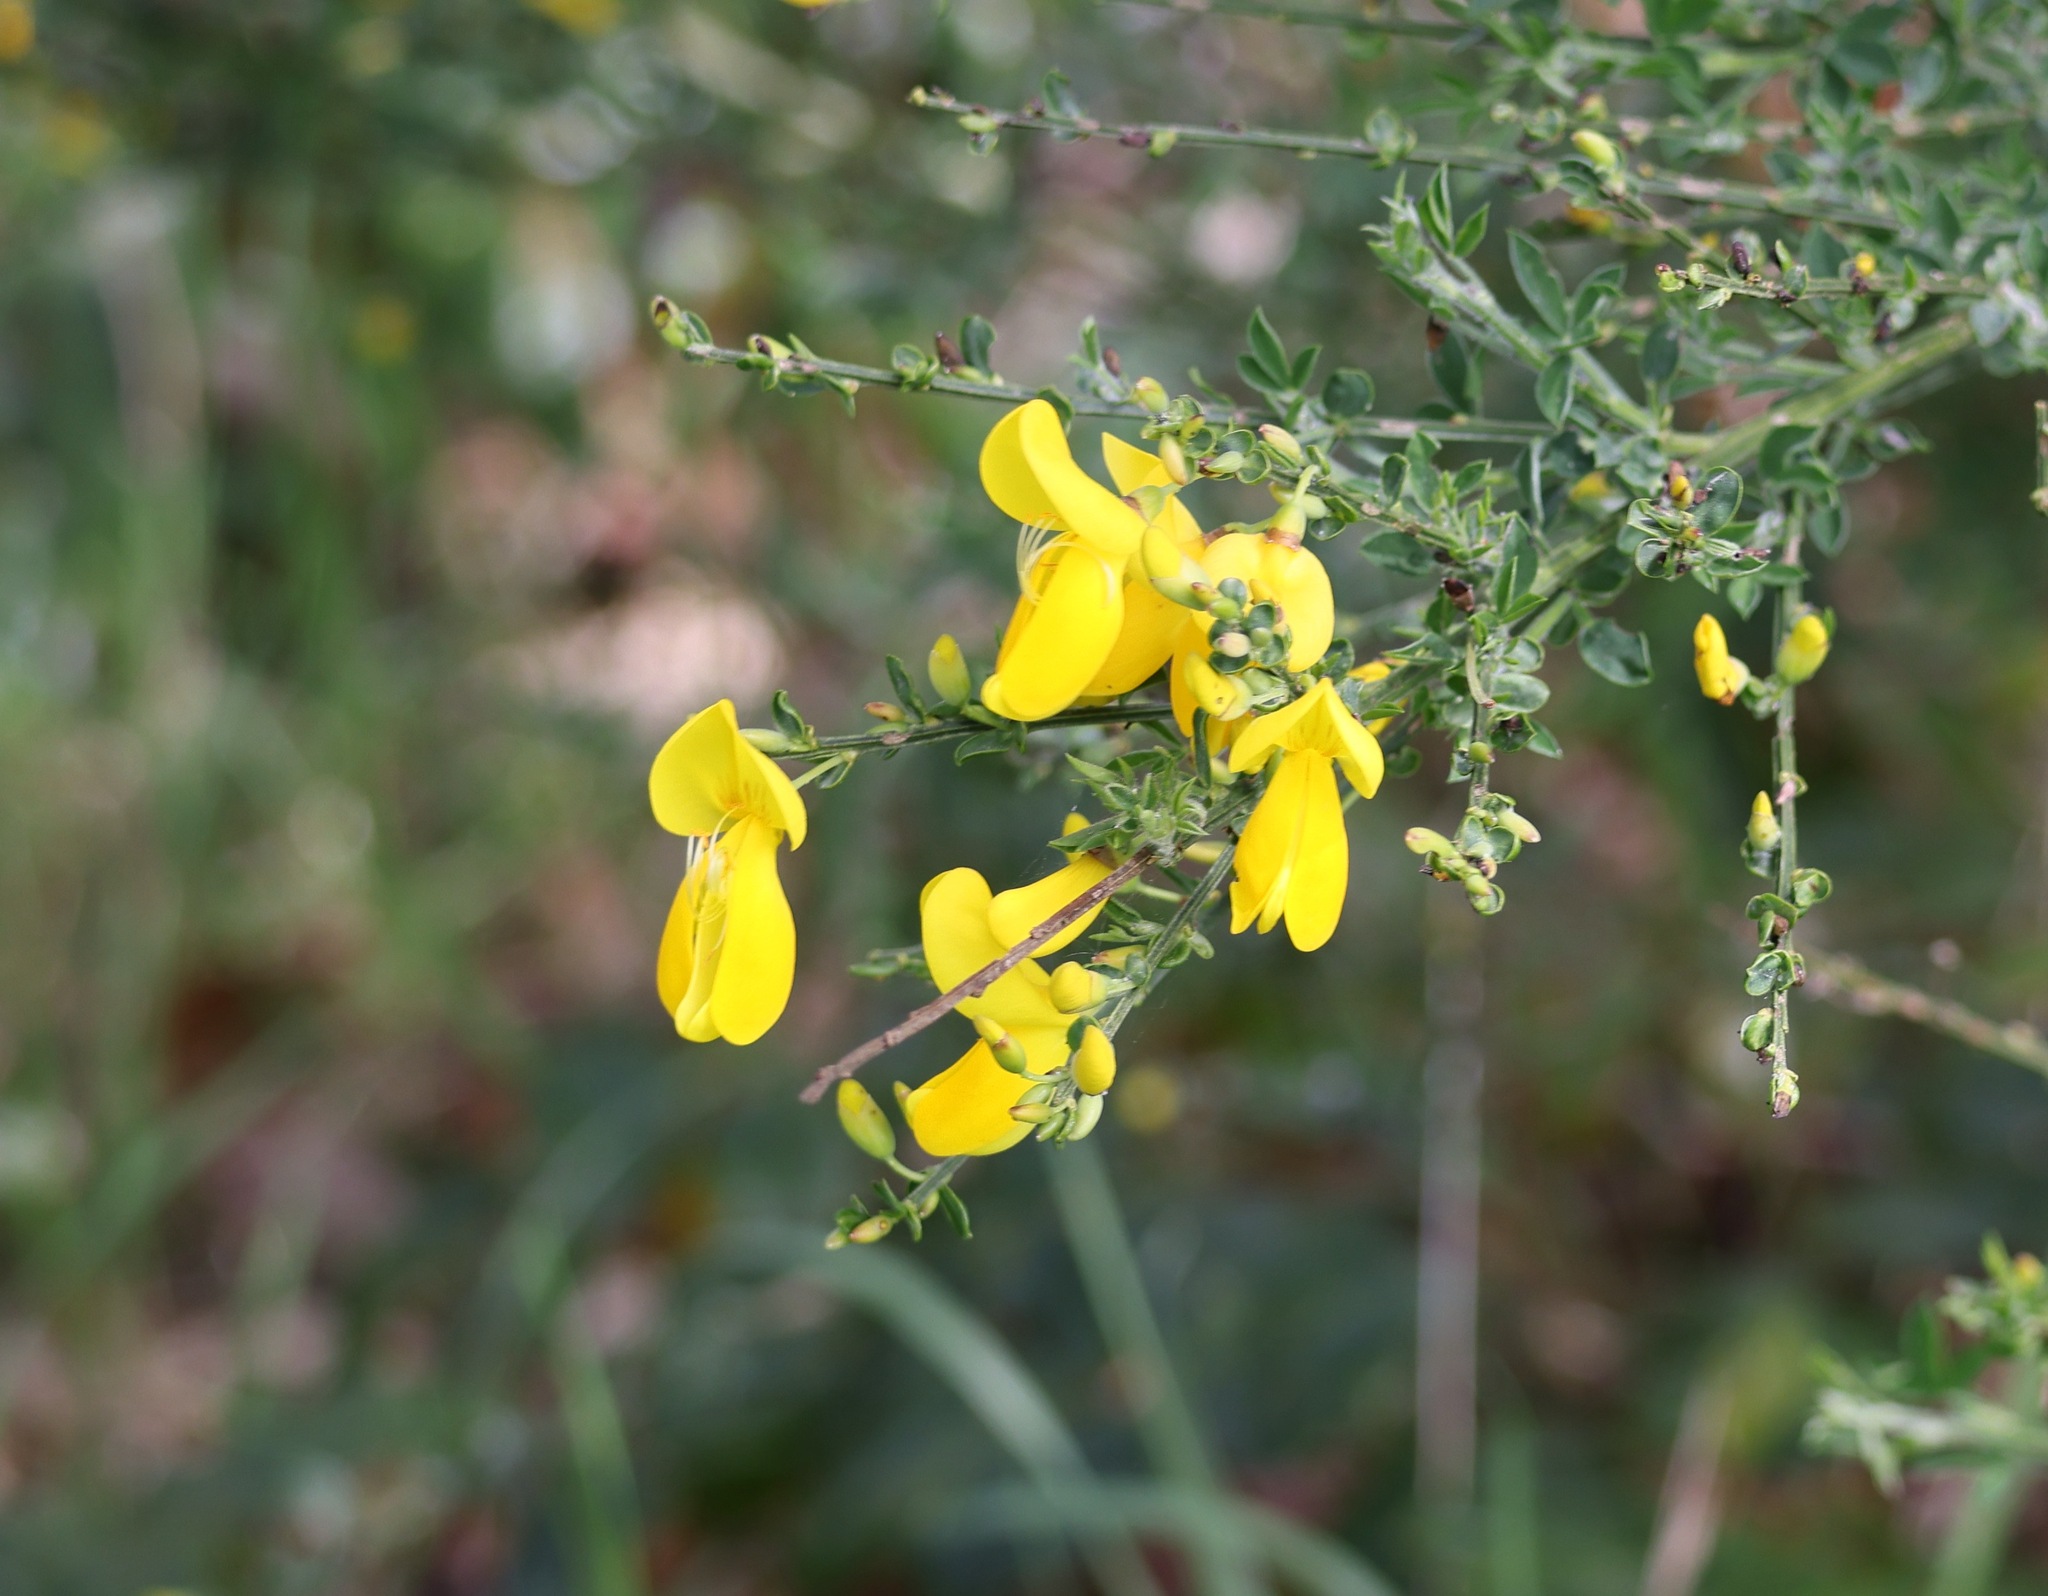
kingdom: Plantae
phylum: Tracheophyta
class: Magnoliopsida
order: Fabales
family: Fabaceae
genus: Cytisus
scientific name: Cytisus scoparius
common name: Scotch broom
